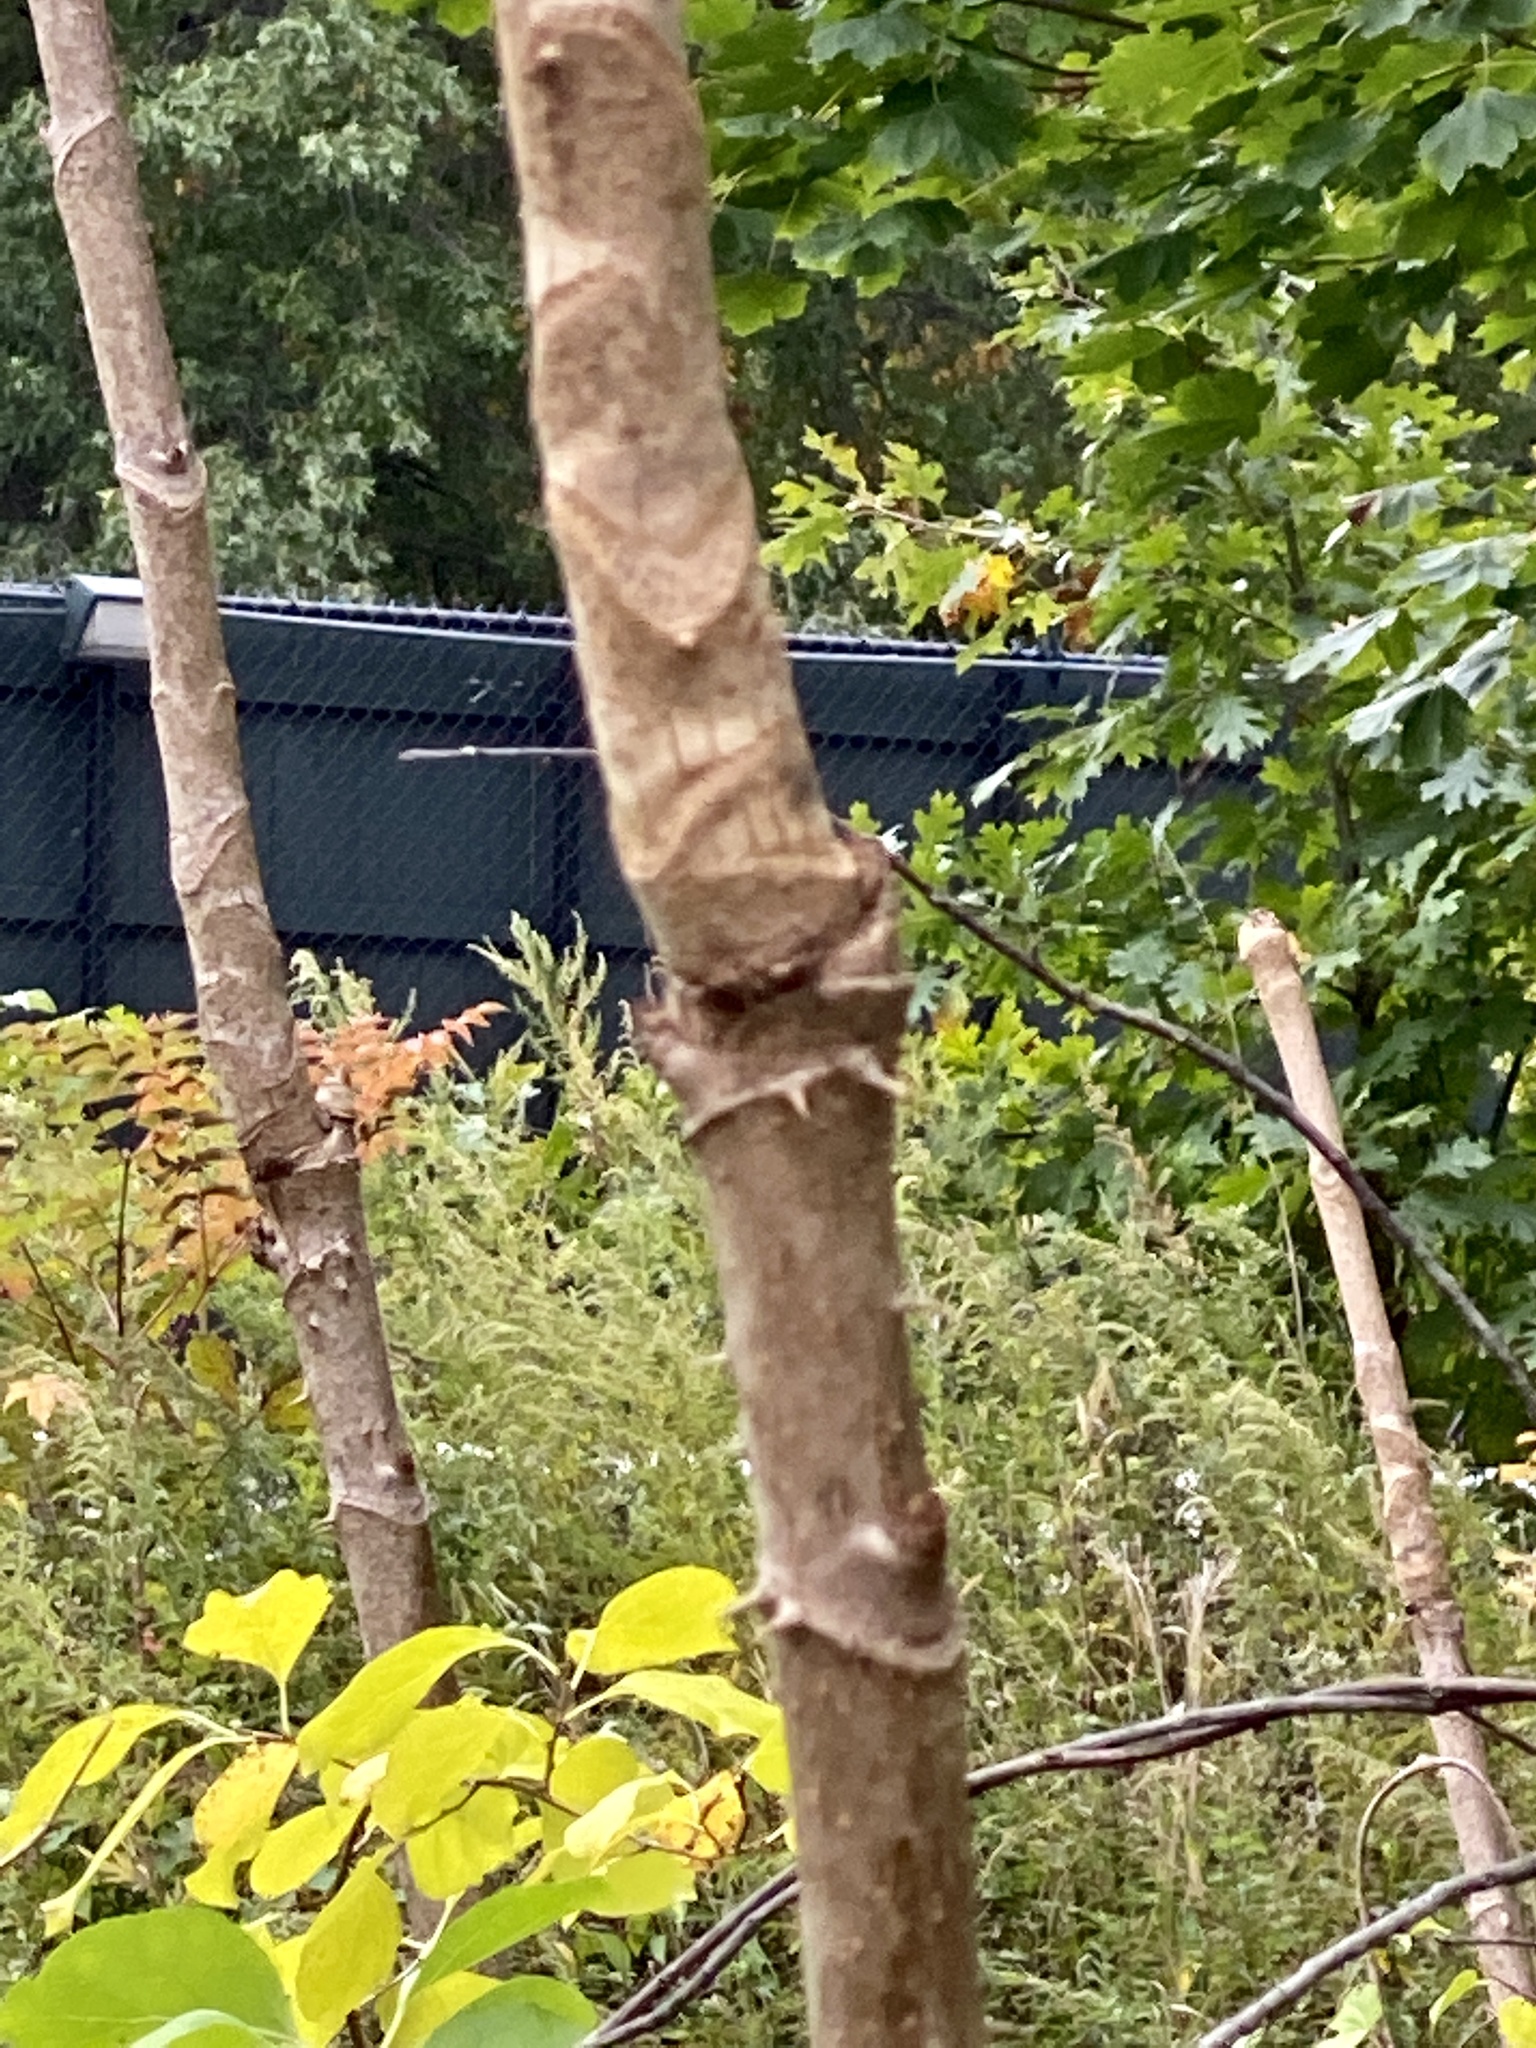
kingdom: Plantae
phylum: Tracheophyta
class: Magnoliopsida
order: Apiales
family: Araliaceae
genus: Aralia
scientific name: Aralia elata
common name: Japanese angelica-tree
